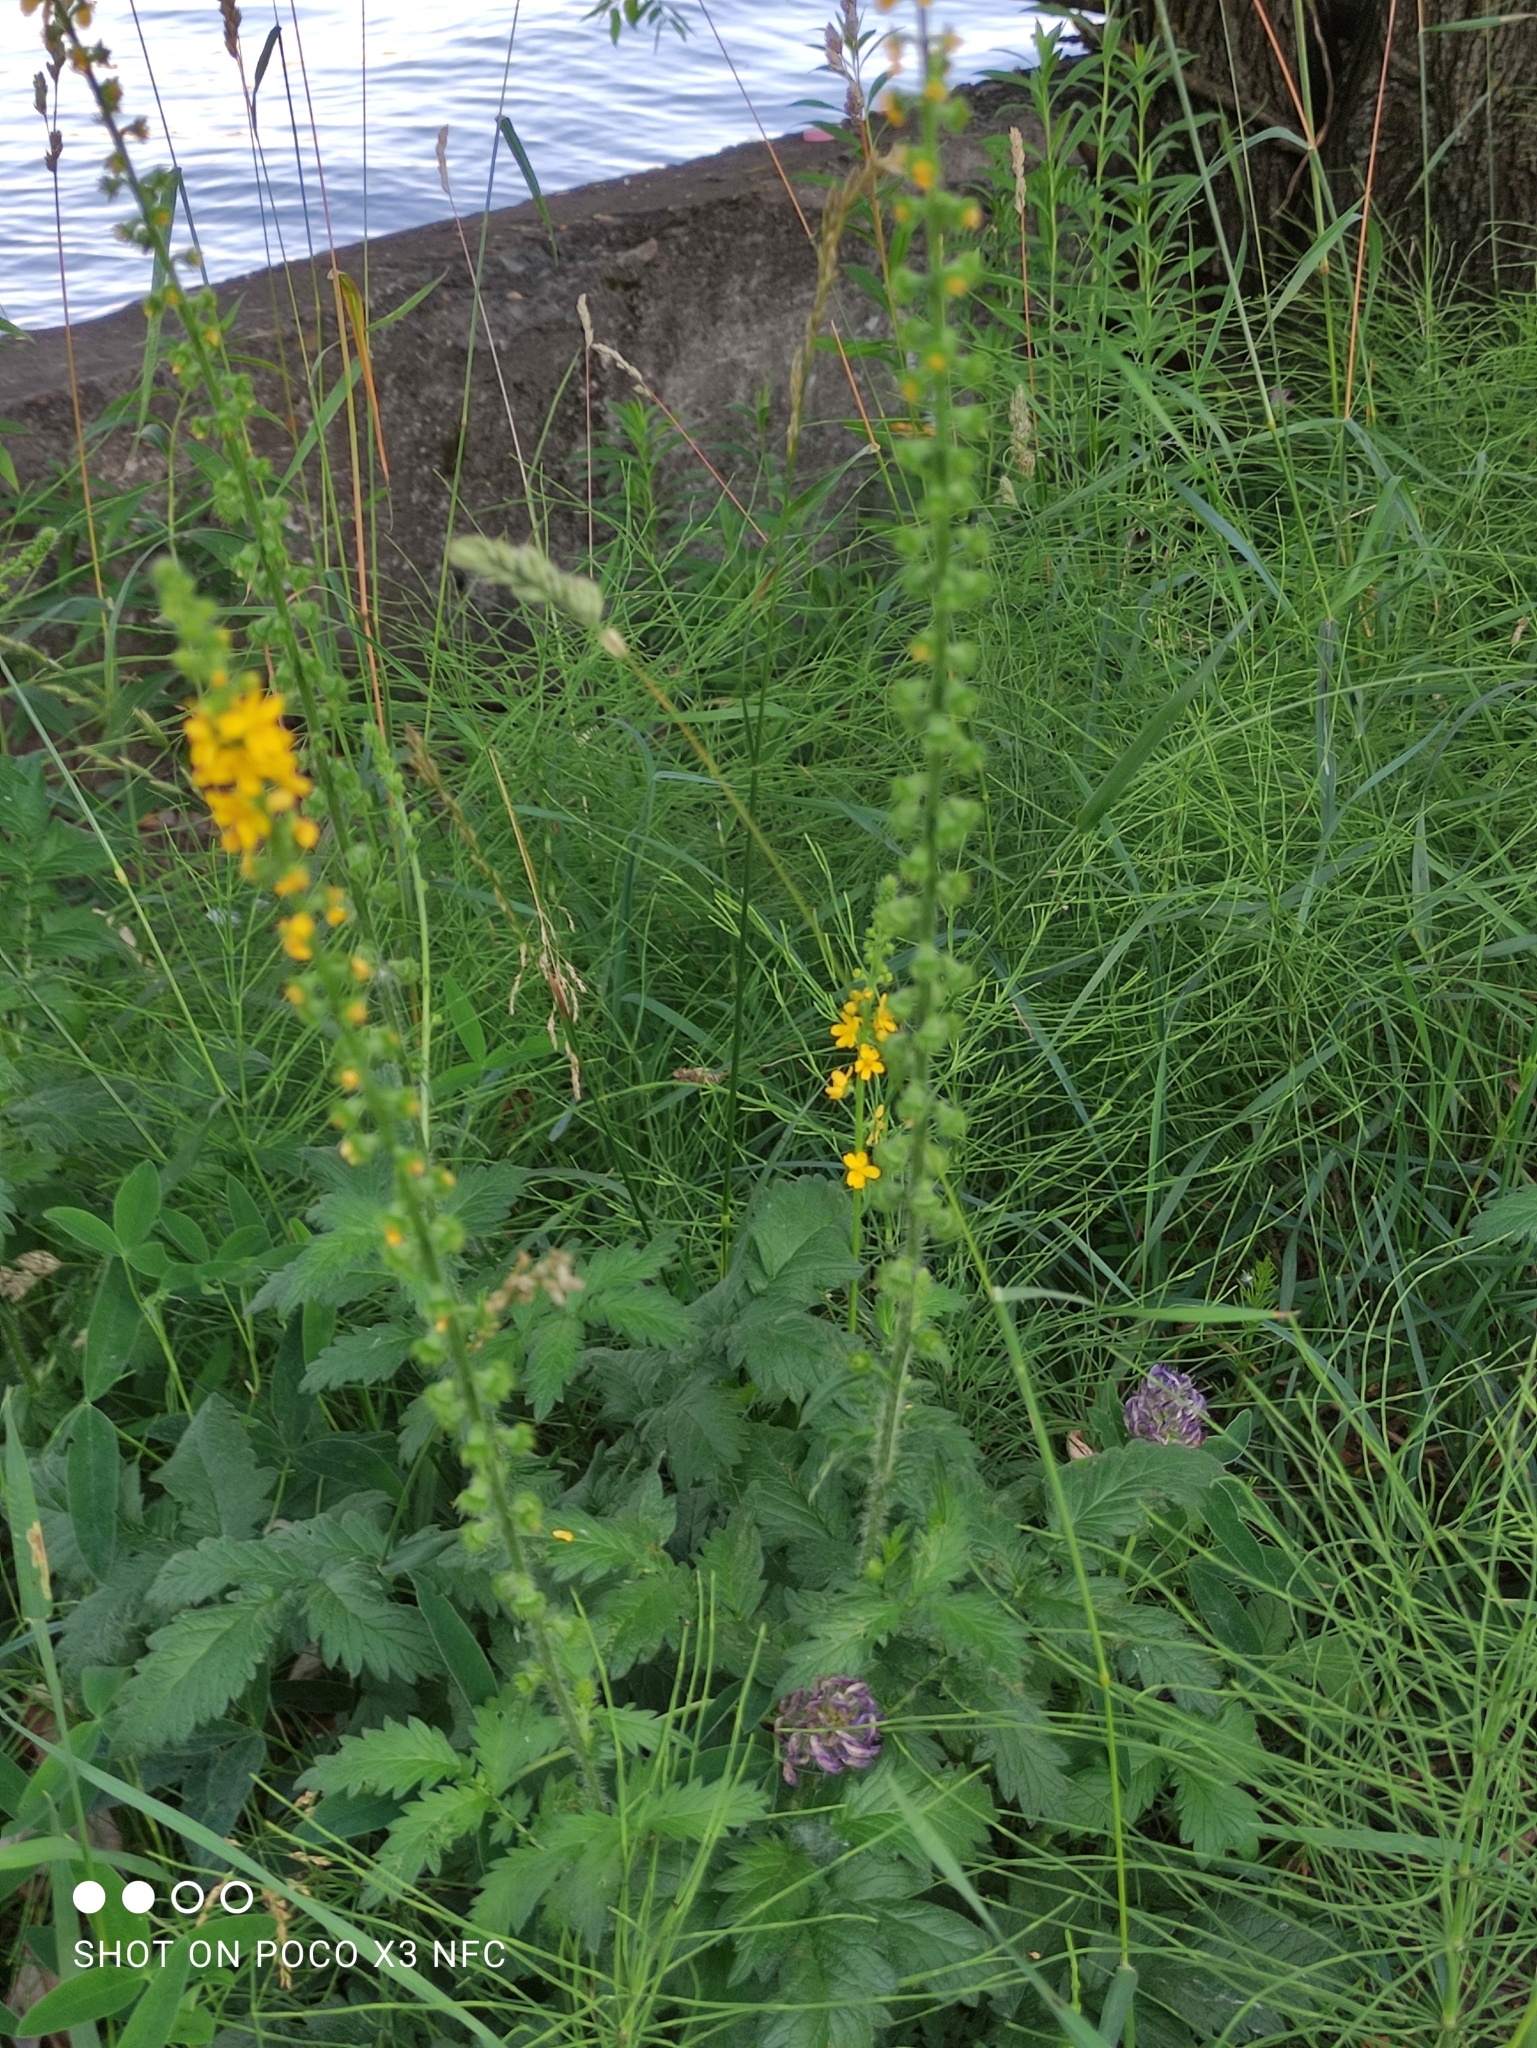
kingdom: Plantae
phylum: Tracheophyta
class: Magnoliopsida
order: Rosales
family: Rosaceae
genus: Agrimonia
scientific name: Agrimonia eupatoria
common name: Agrimony
